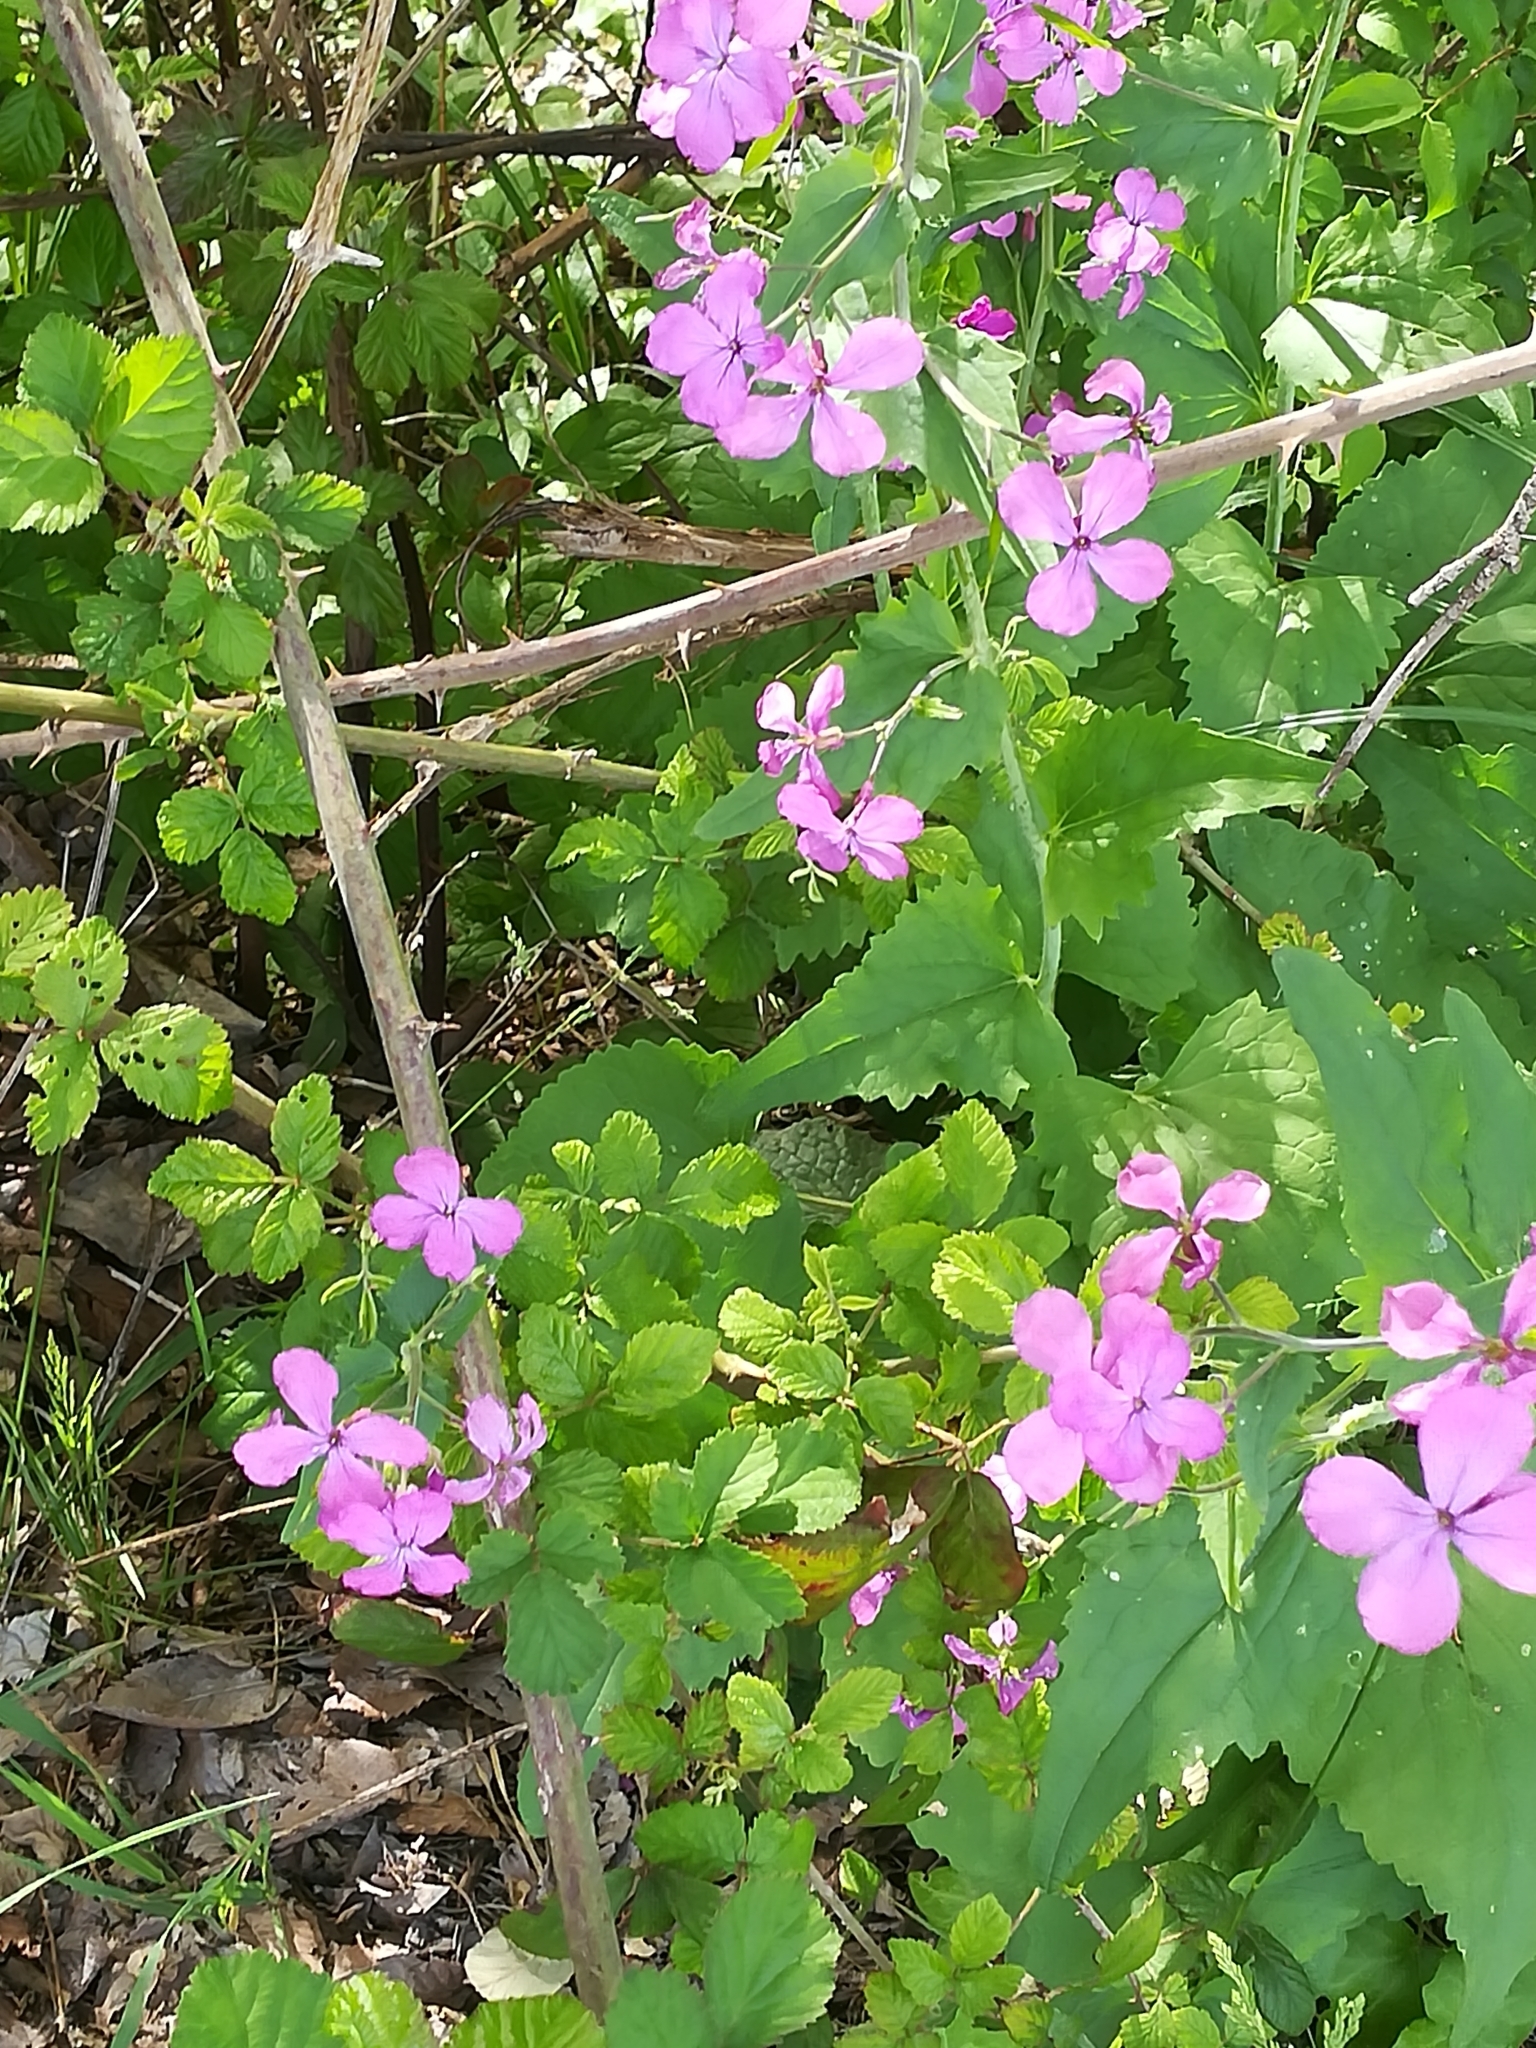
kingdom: Plantae
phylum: Tracheophyta
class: Magnoliopsida
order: Brassicales
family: Brassicaceae
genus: Lunaria
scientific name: Lunaria annua
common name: Honesty
